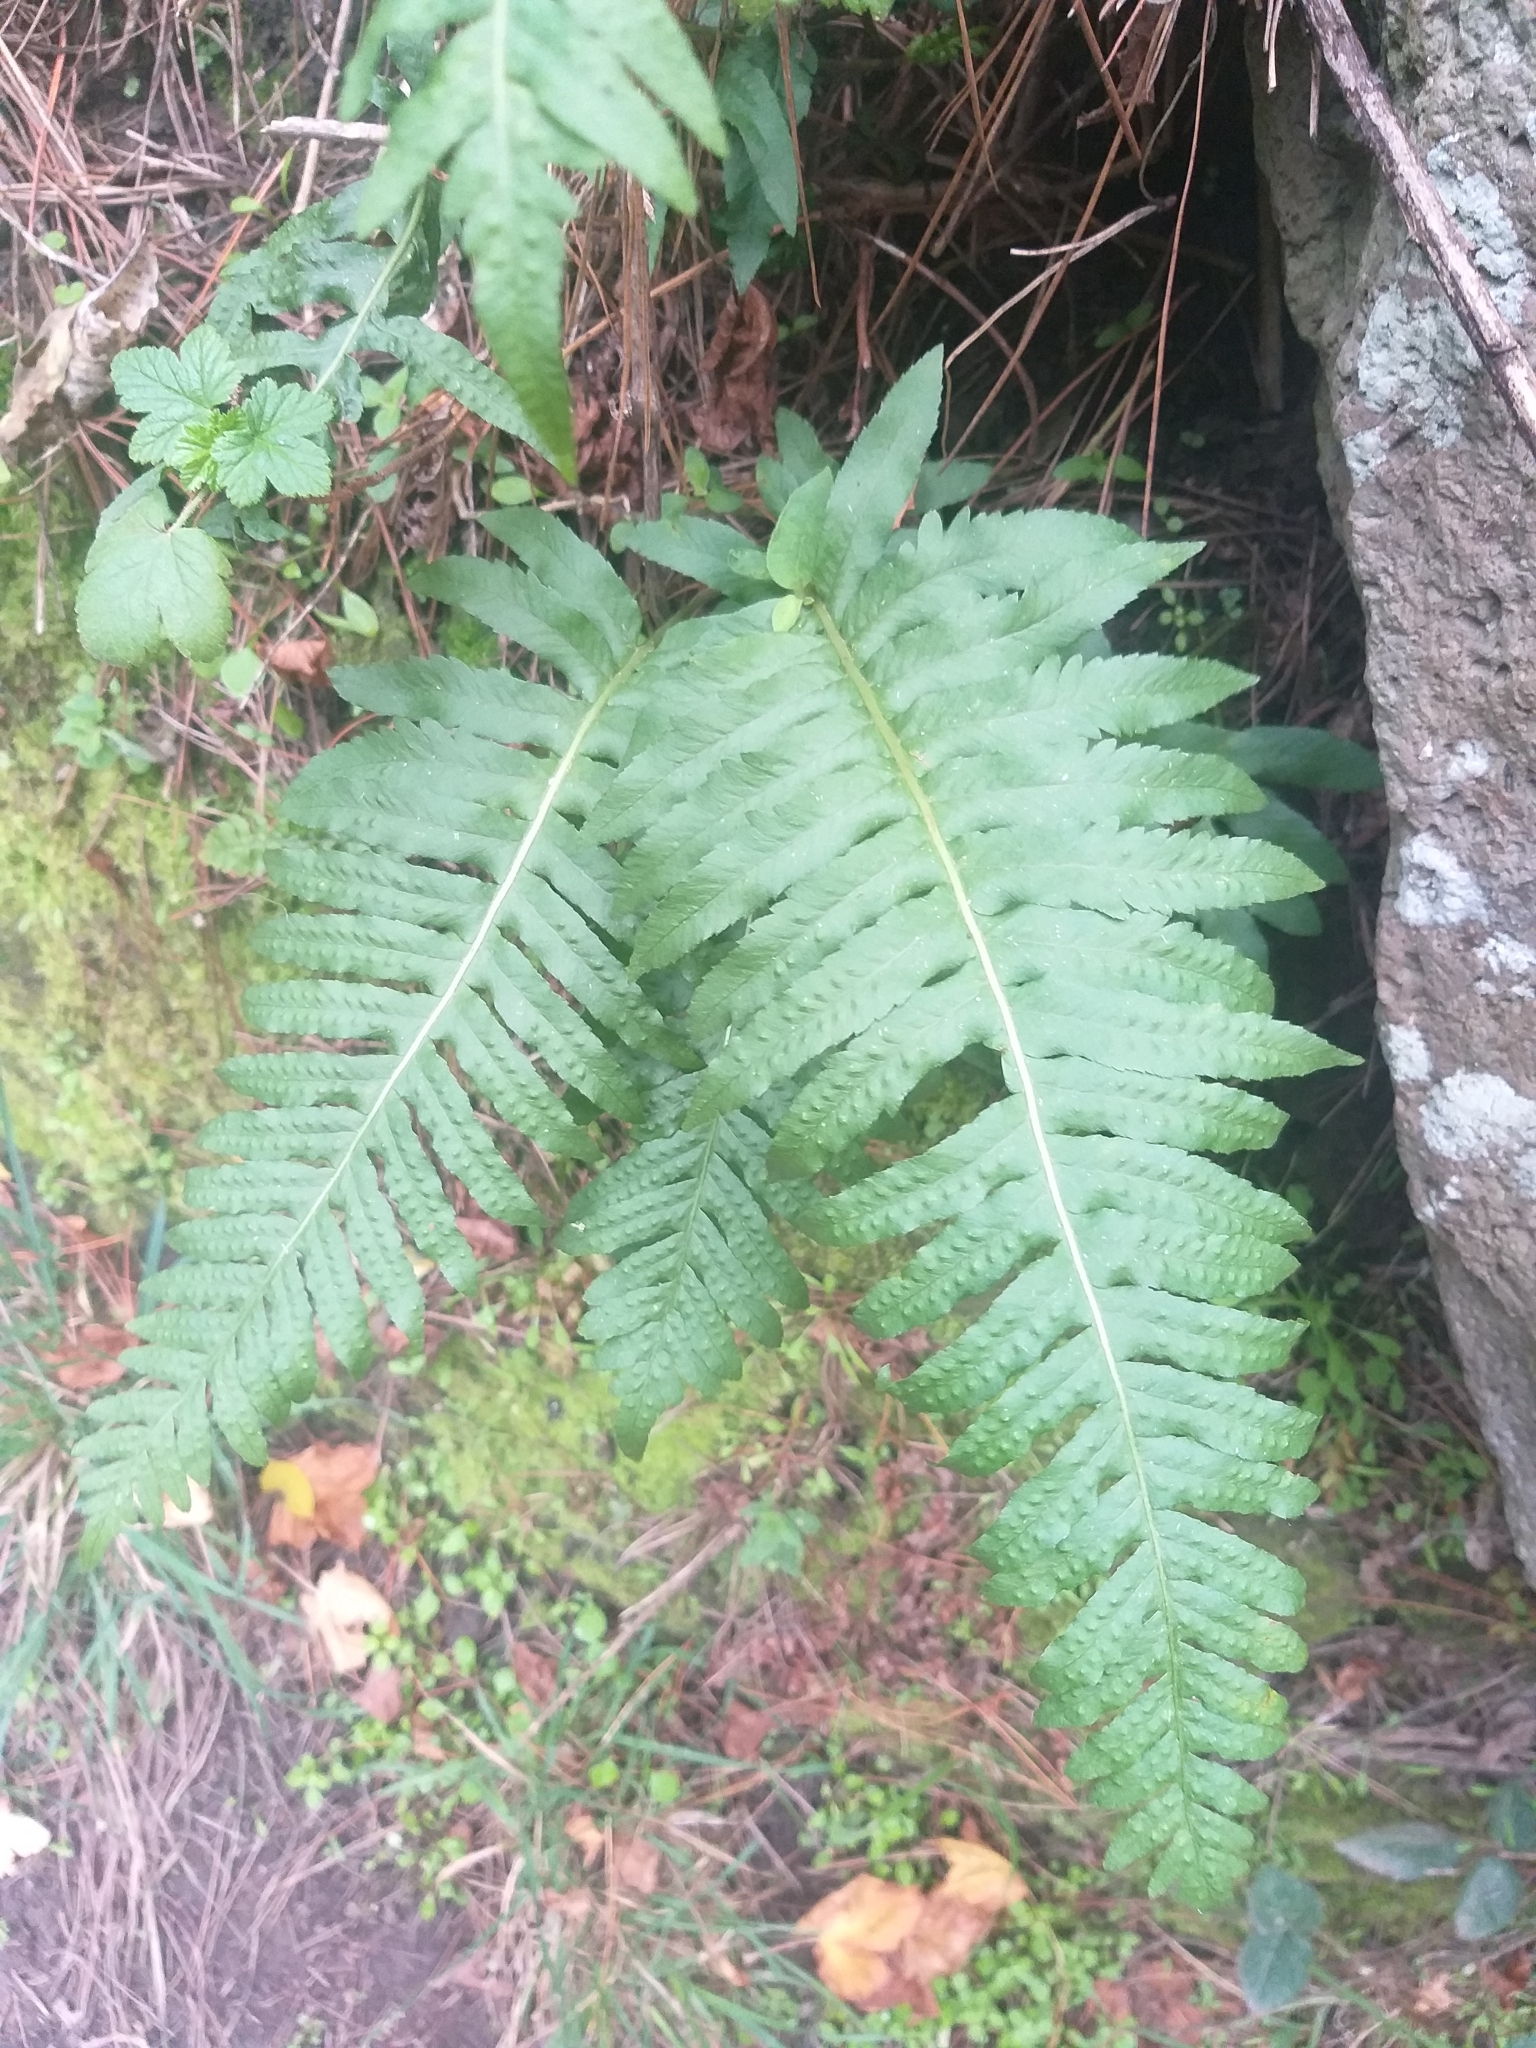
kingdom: Plantae
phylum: Tracheophyta
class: Polypodiopsida
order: Polypodiales
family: Polypodiaceae
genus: Polypodium
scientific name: Polypodium vulgare
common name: Common polypody
